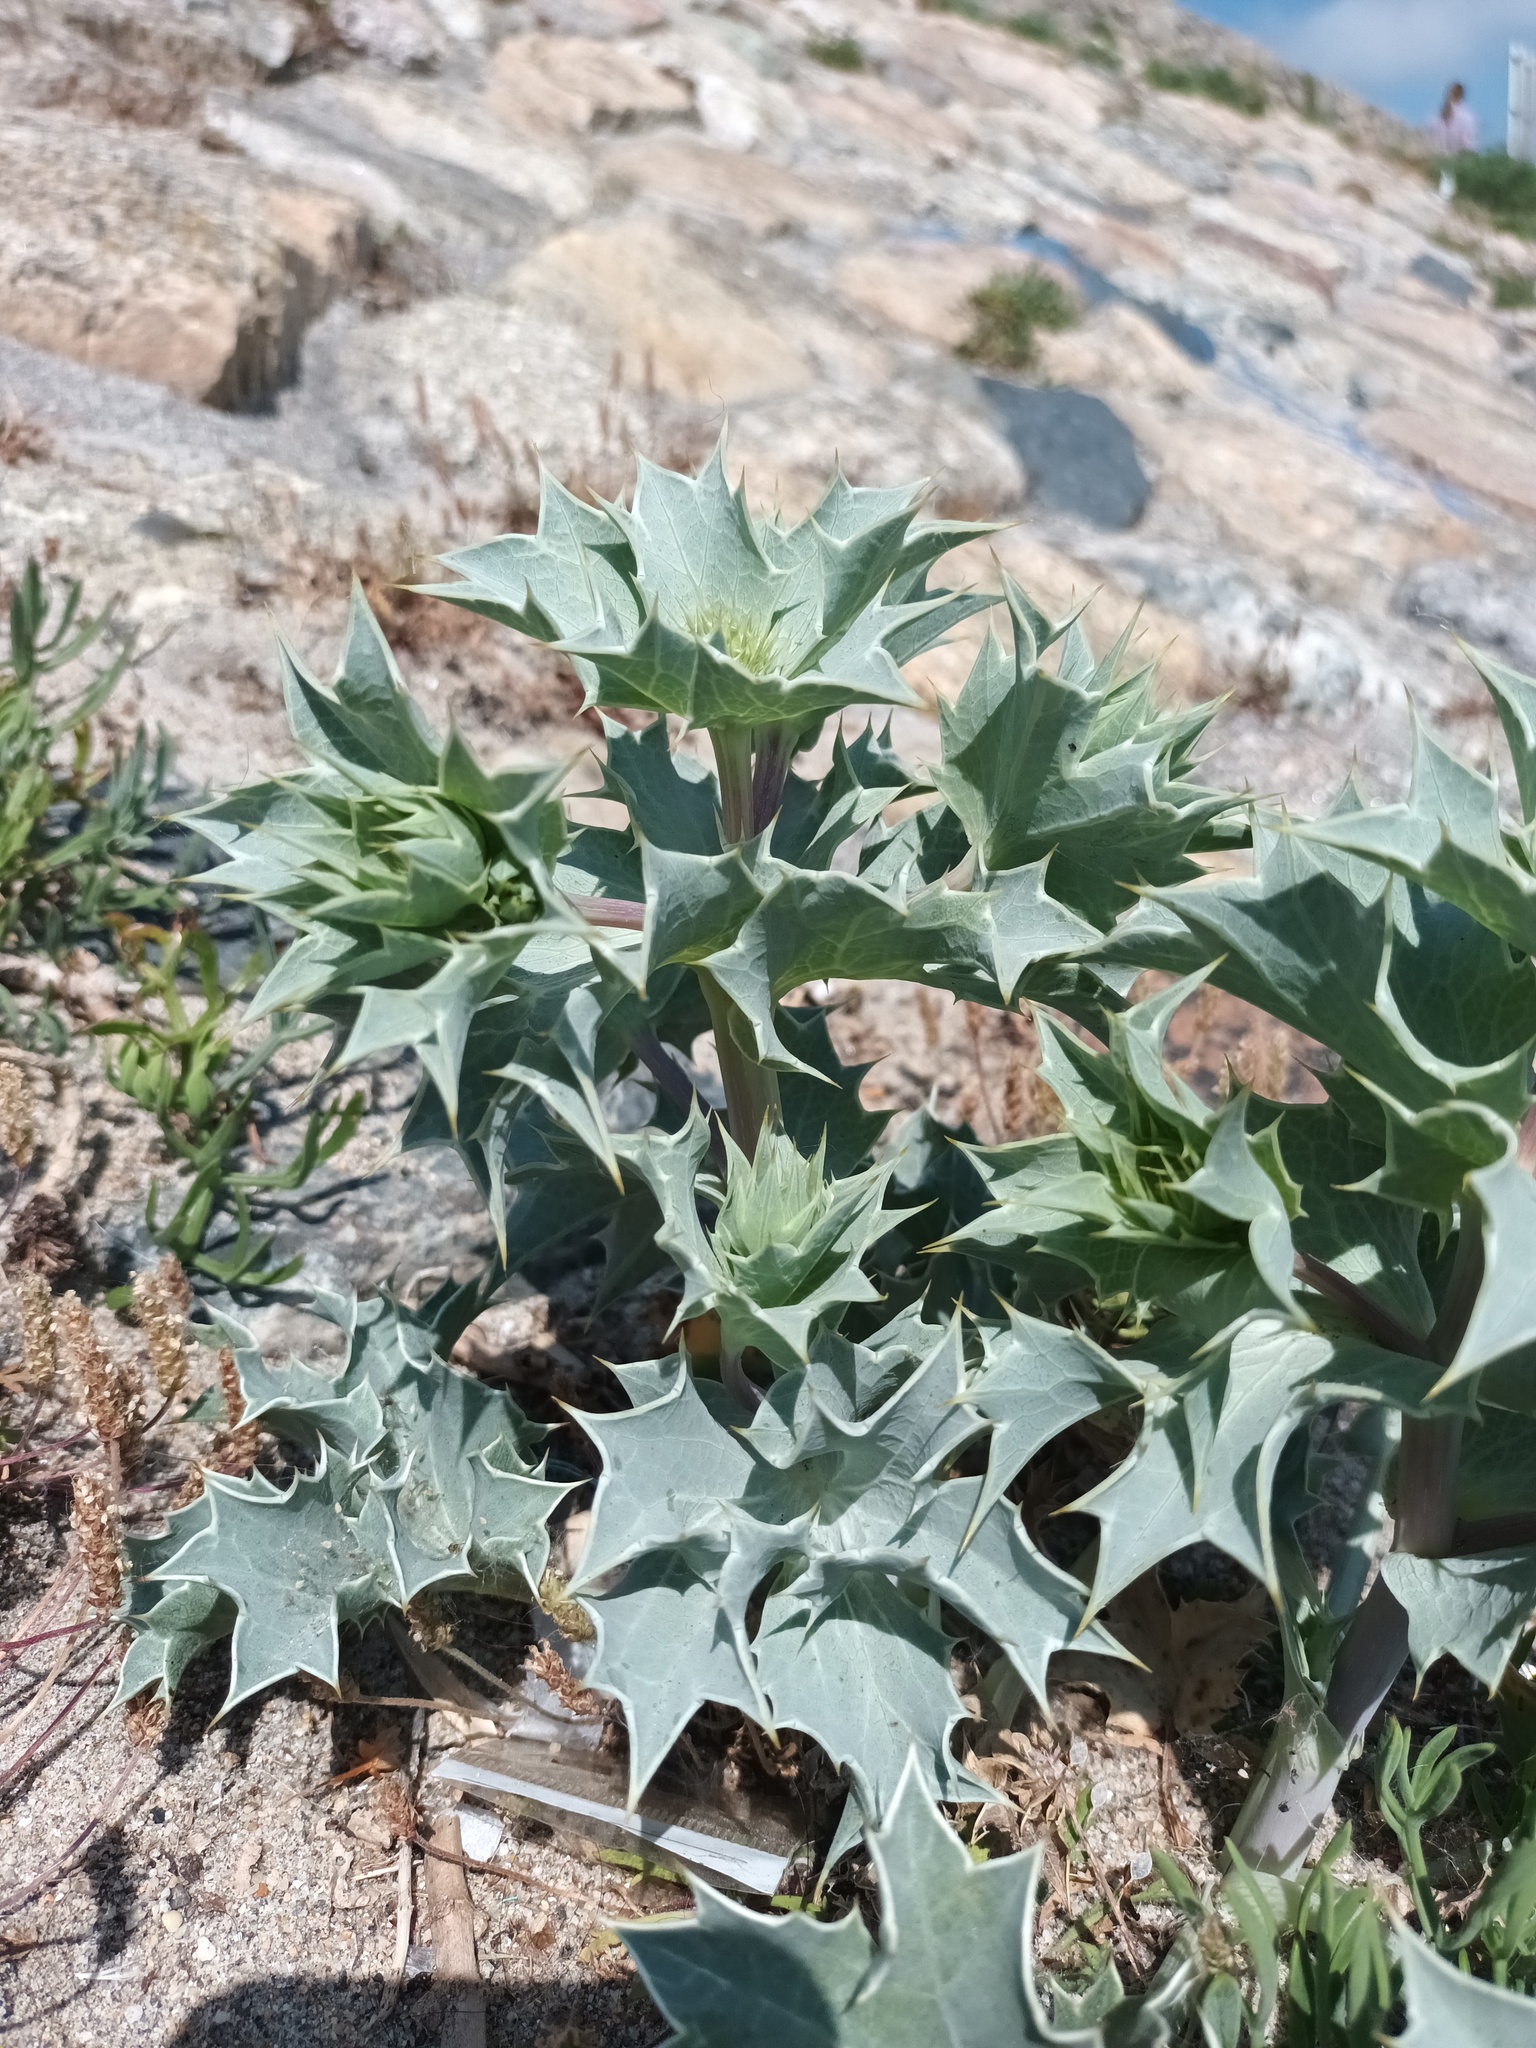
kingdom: Plantae
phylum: Tracheophyta
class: Magnoliopsida
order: Apiales
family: Apiaceae
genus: Eryngium
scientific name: Eryngium maritimum
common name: Sea-holly
